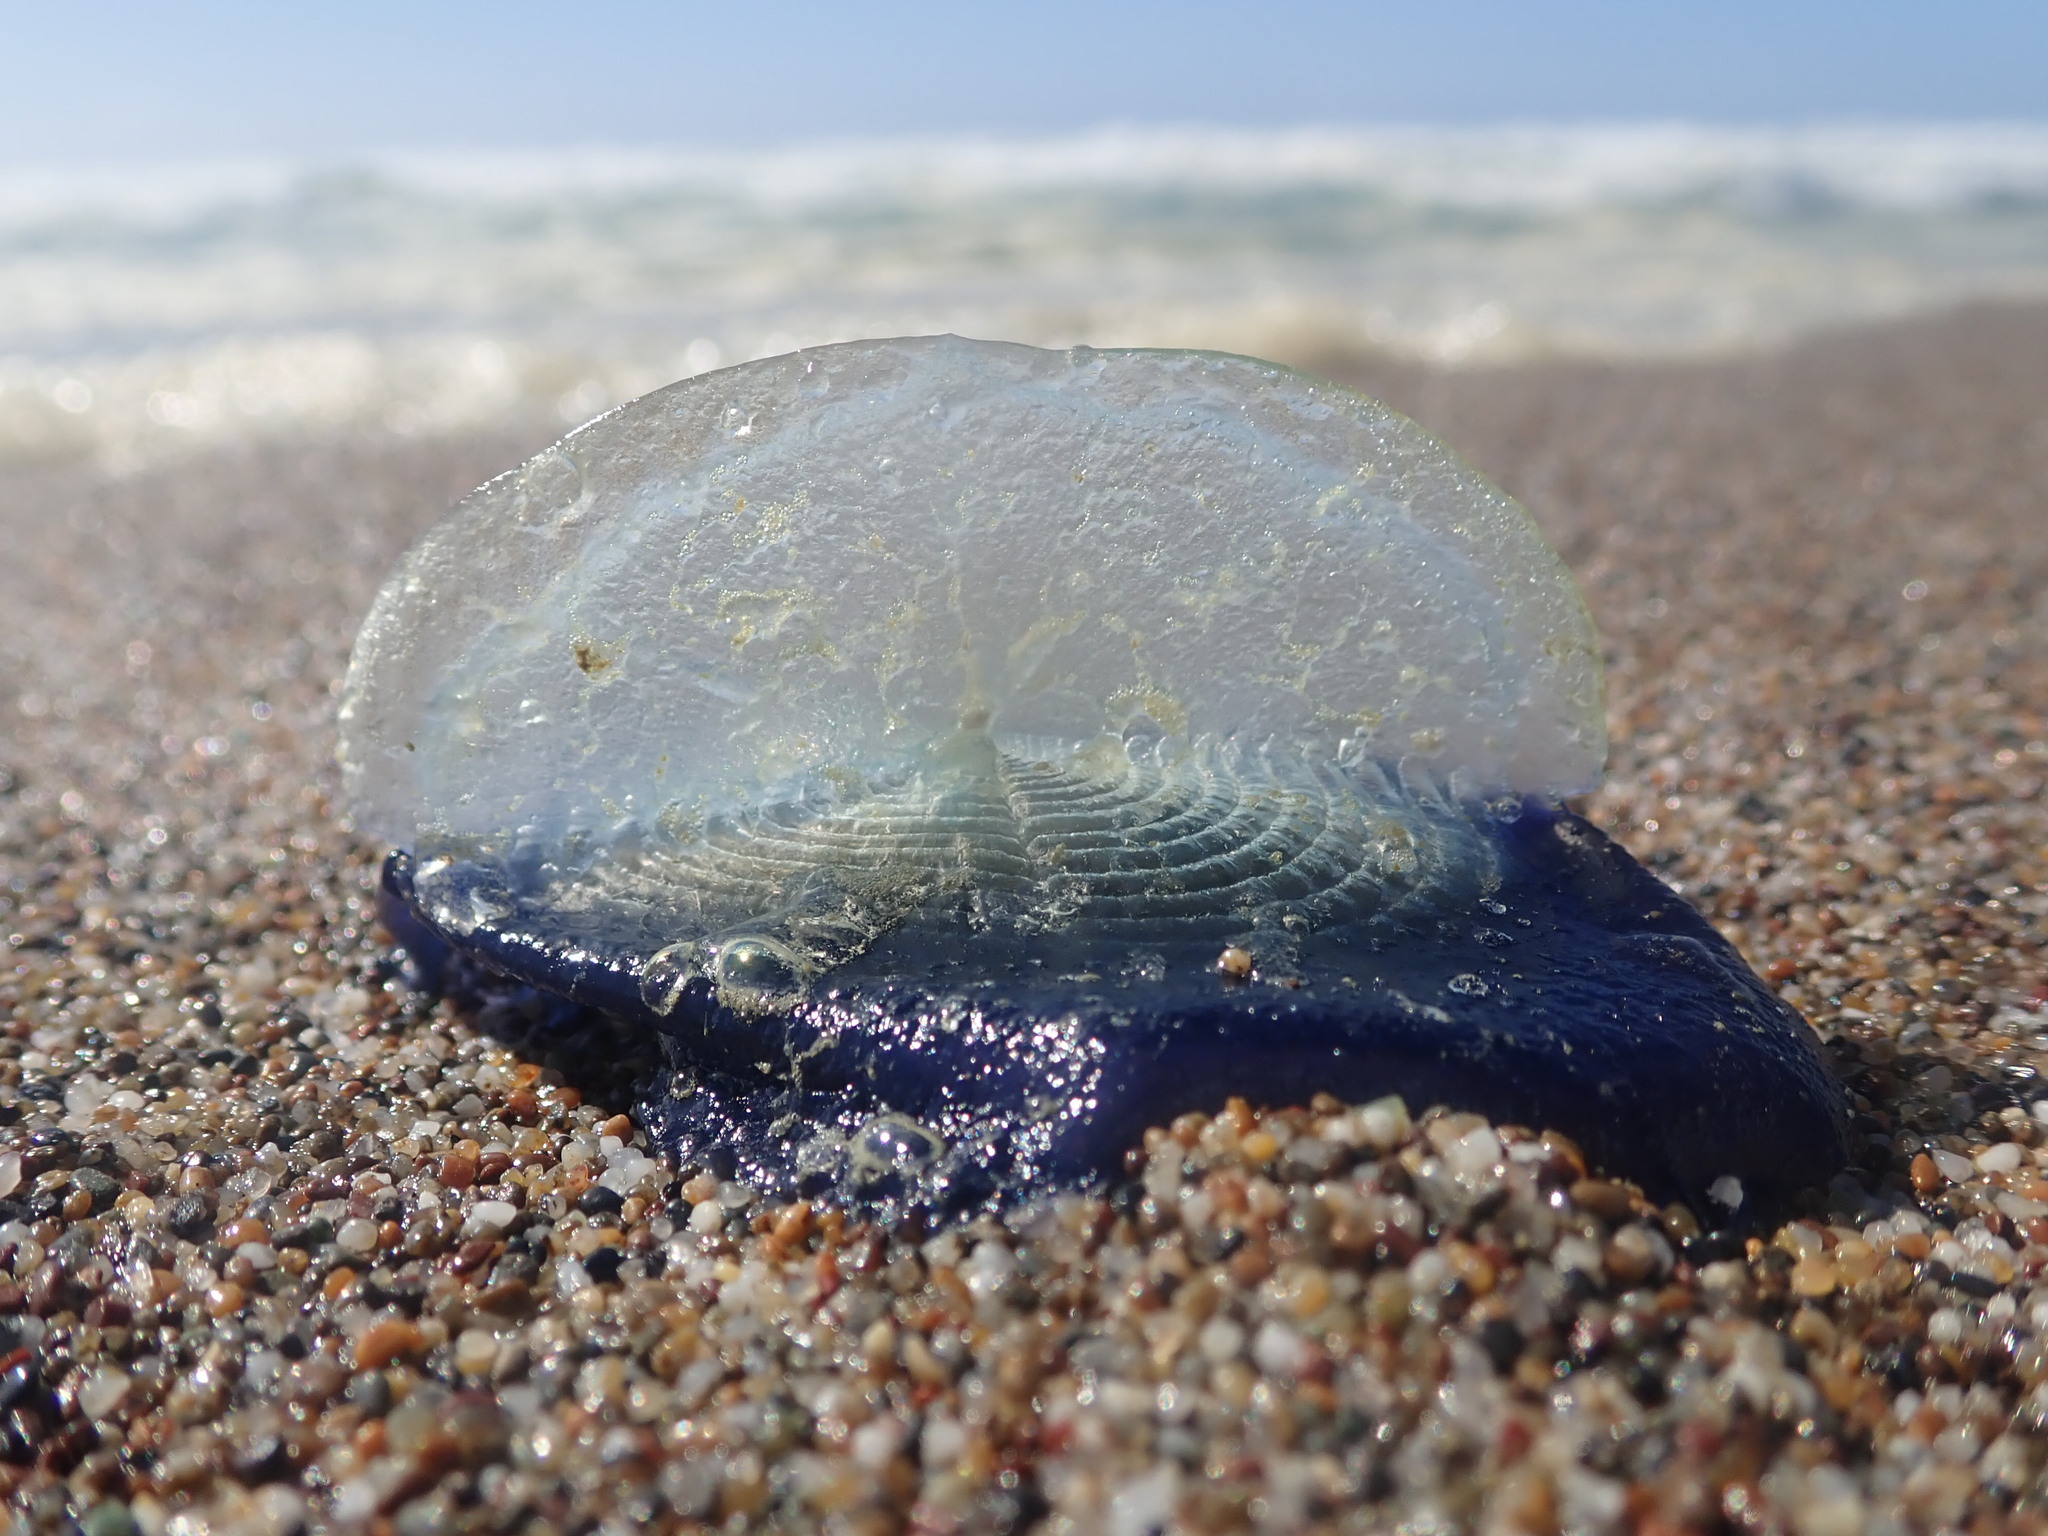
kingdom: Animalia
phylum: Cnidaria
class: Hydrozoa
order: Anthoathecata
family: Porpitidae
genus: Velella
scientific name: Velella velella
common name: By-the-wind-sailor
